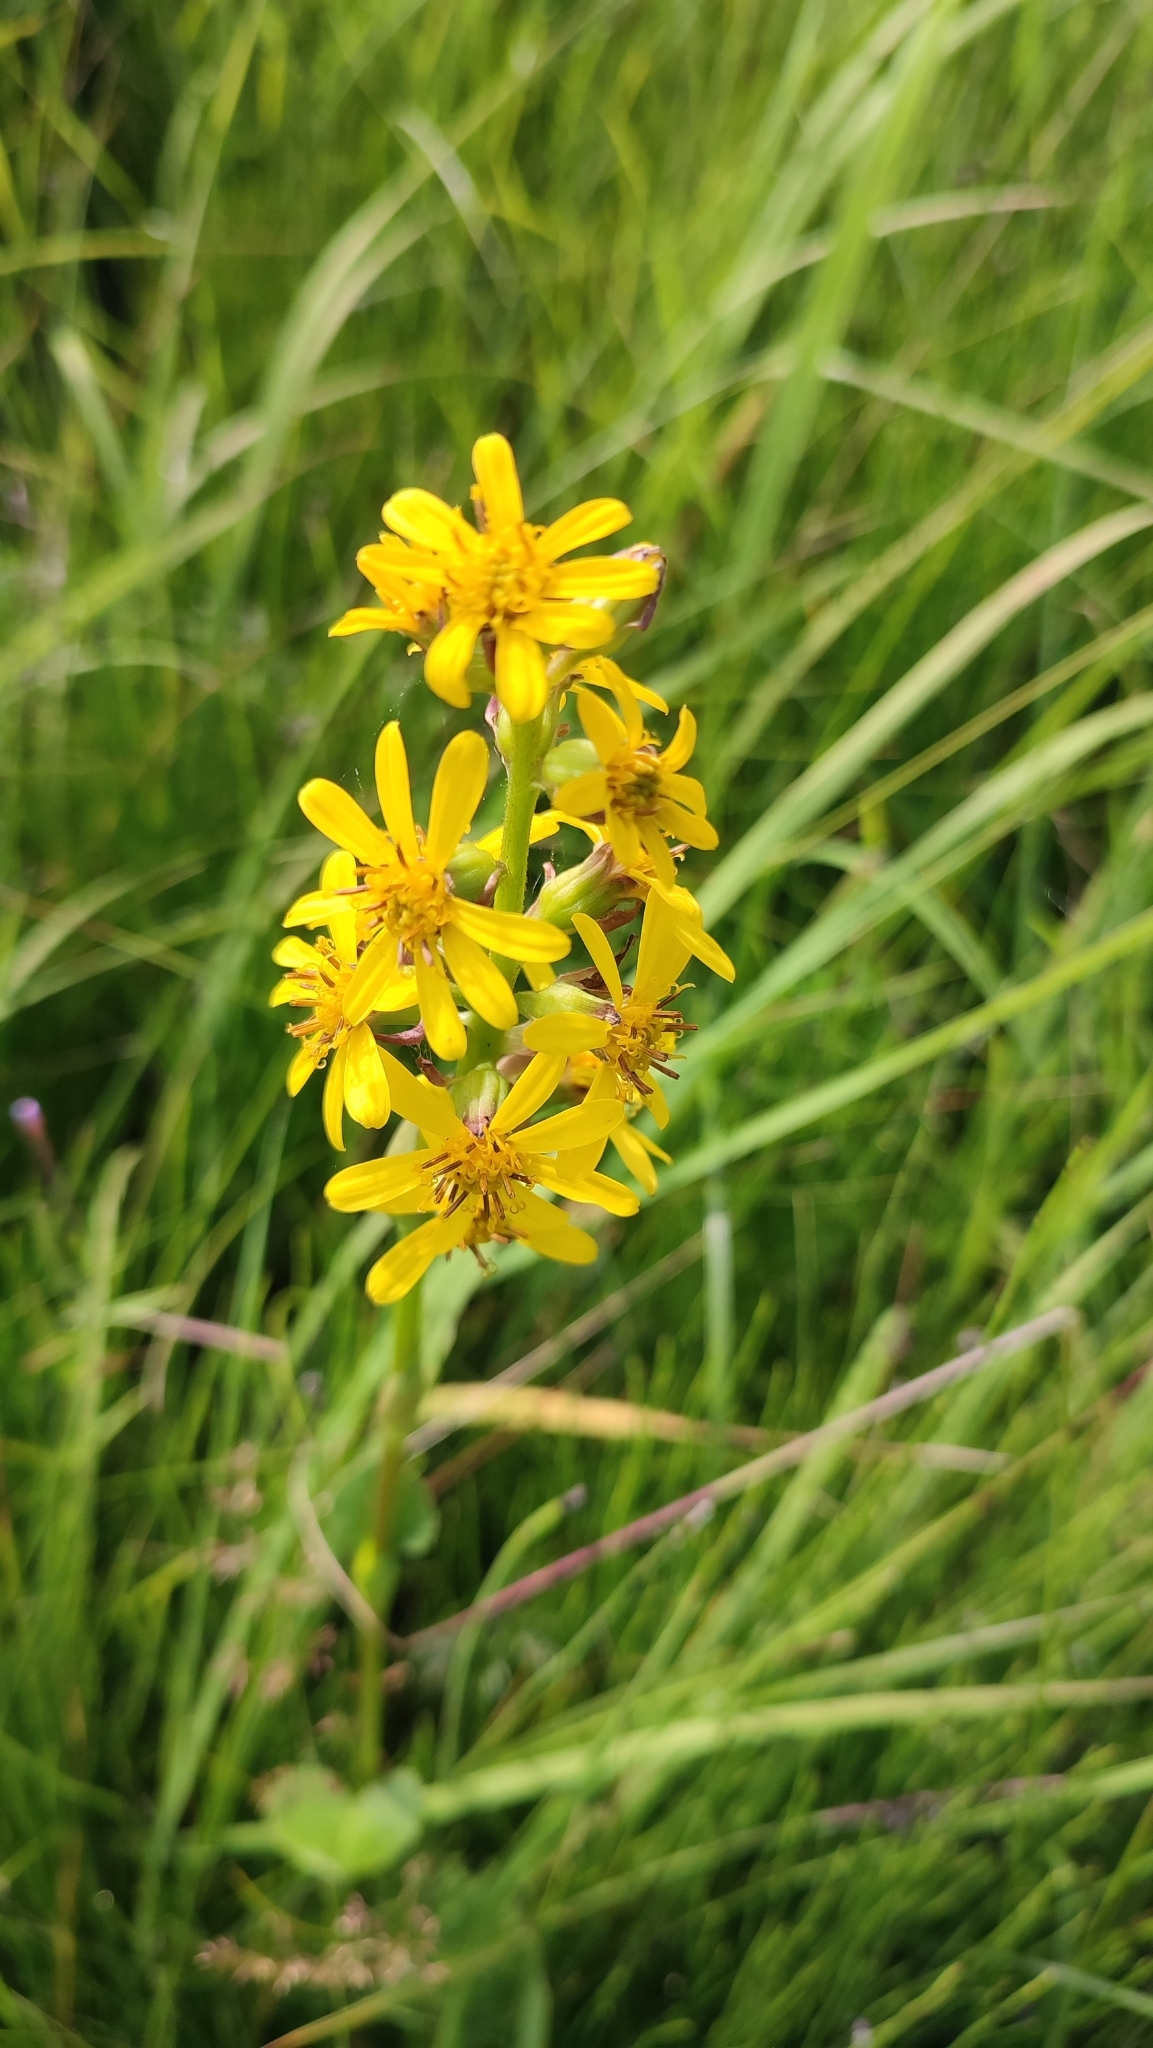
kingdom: Plantae
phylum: Tracheophyta
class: Magnoliopsida
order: Asterales
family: Asteraceae
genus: Ligularia
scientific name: Ligularia sibirica
